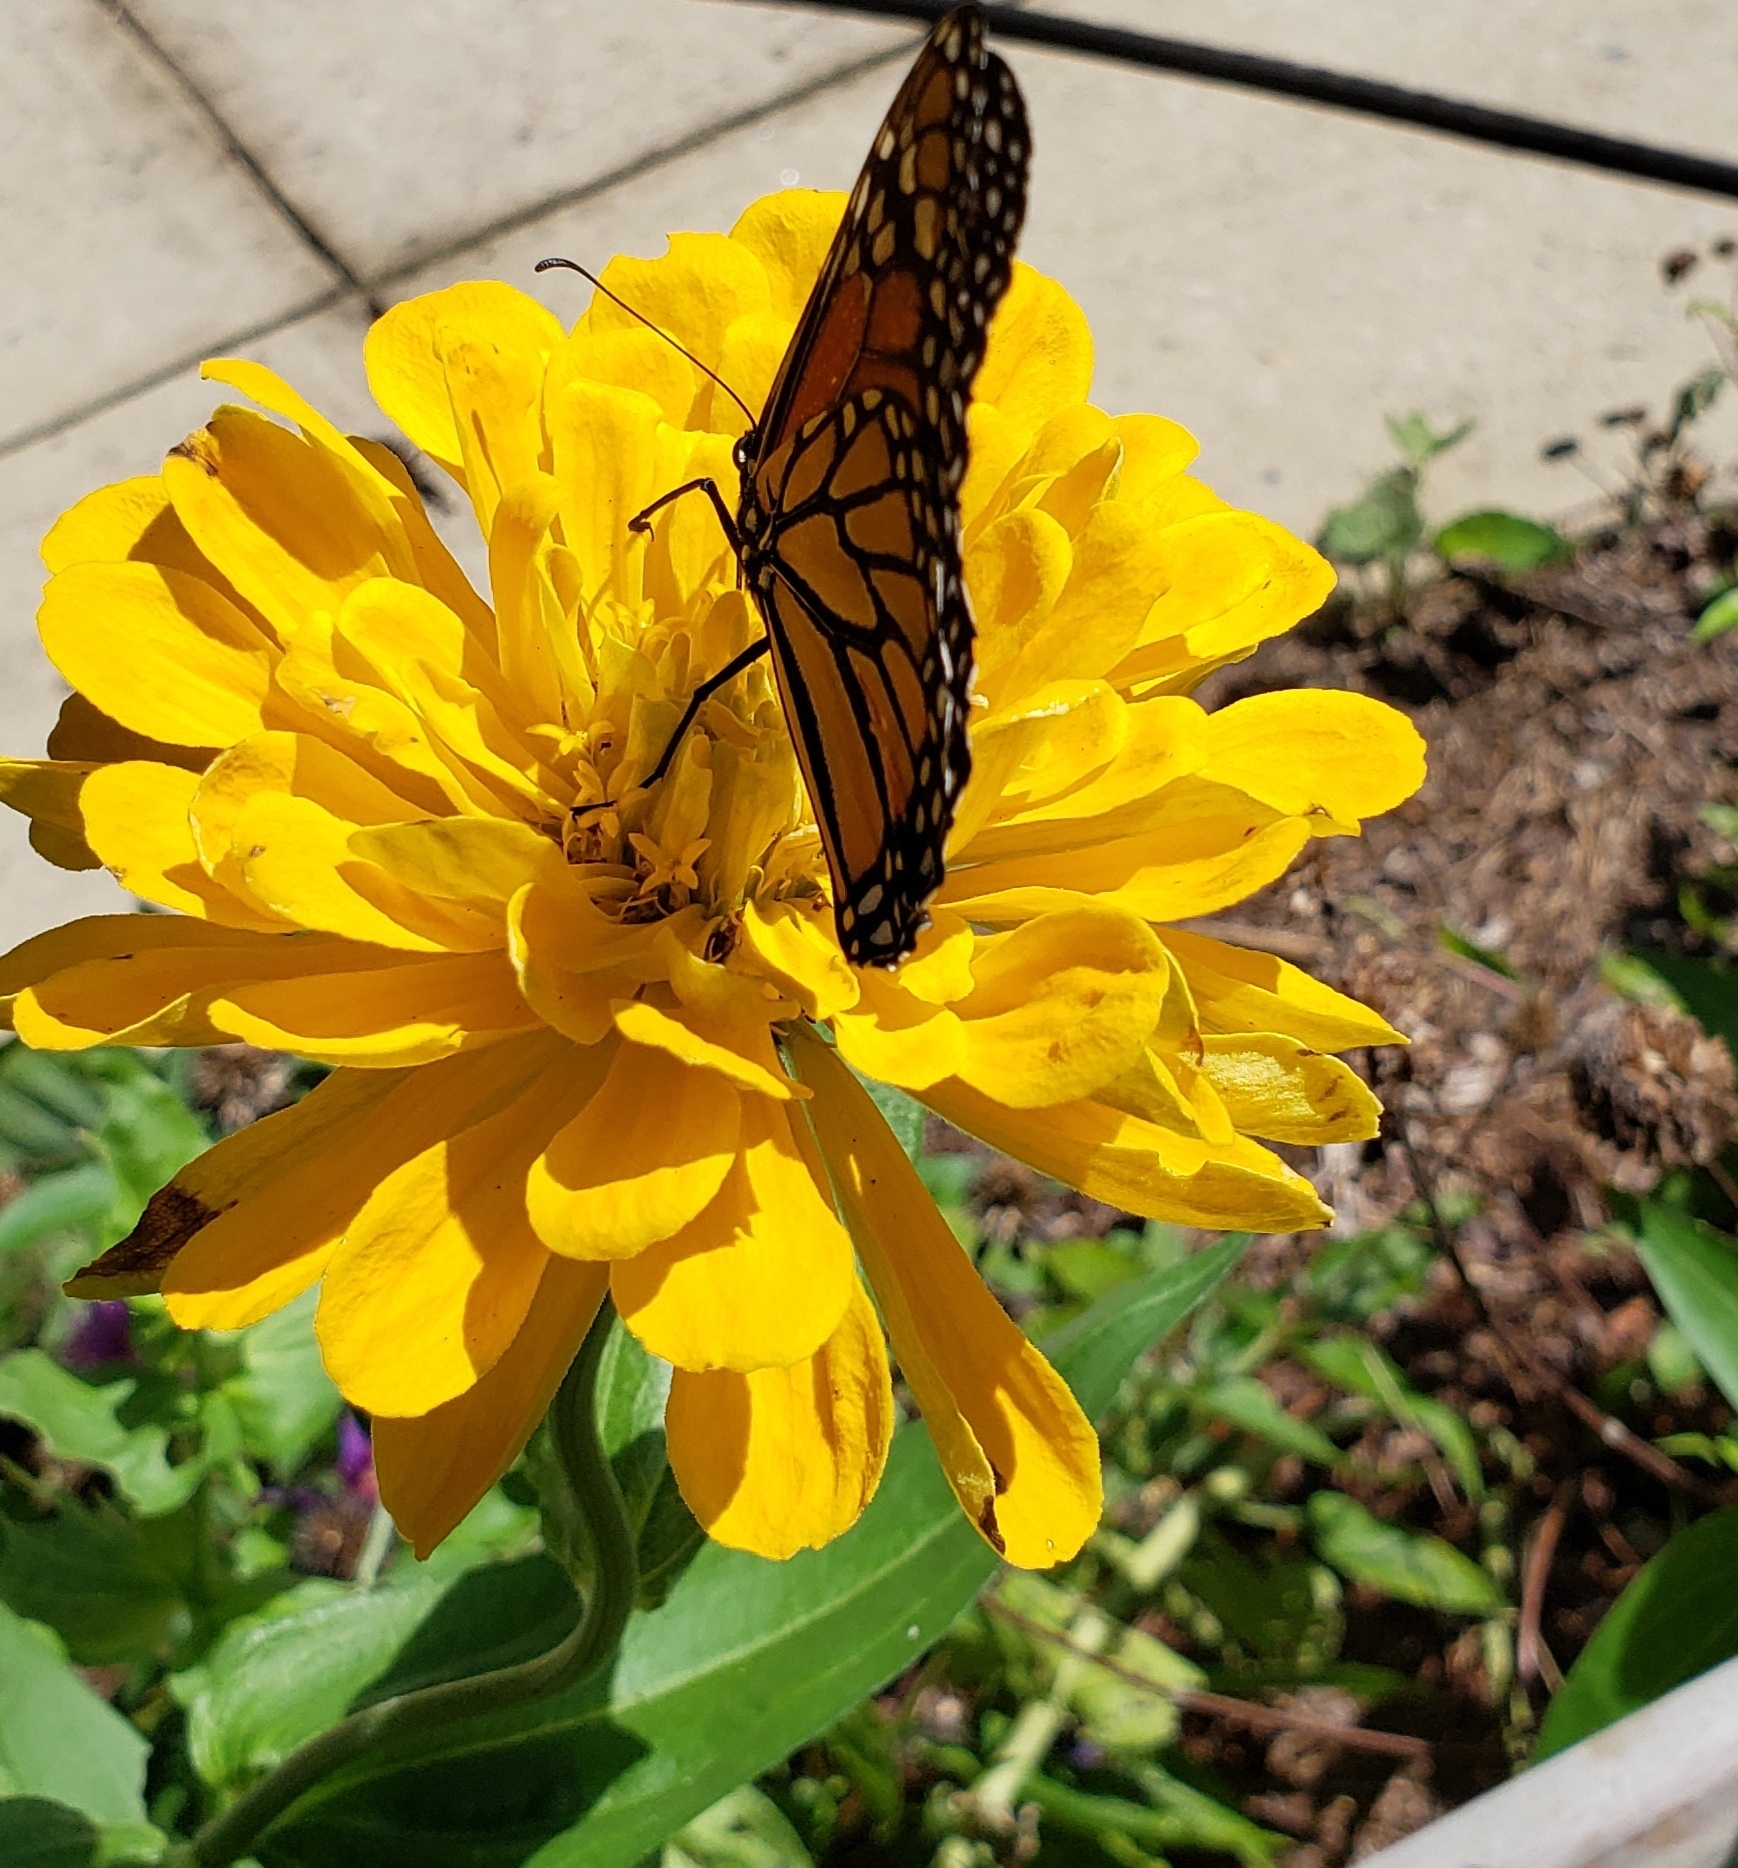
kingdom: Animalia
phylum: Arthropoda
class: Insecta
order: Lepidoptera
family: Nymphalidae
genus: Danaus
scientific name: Danaus plexippus
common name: Monarch
